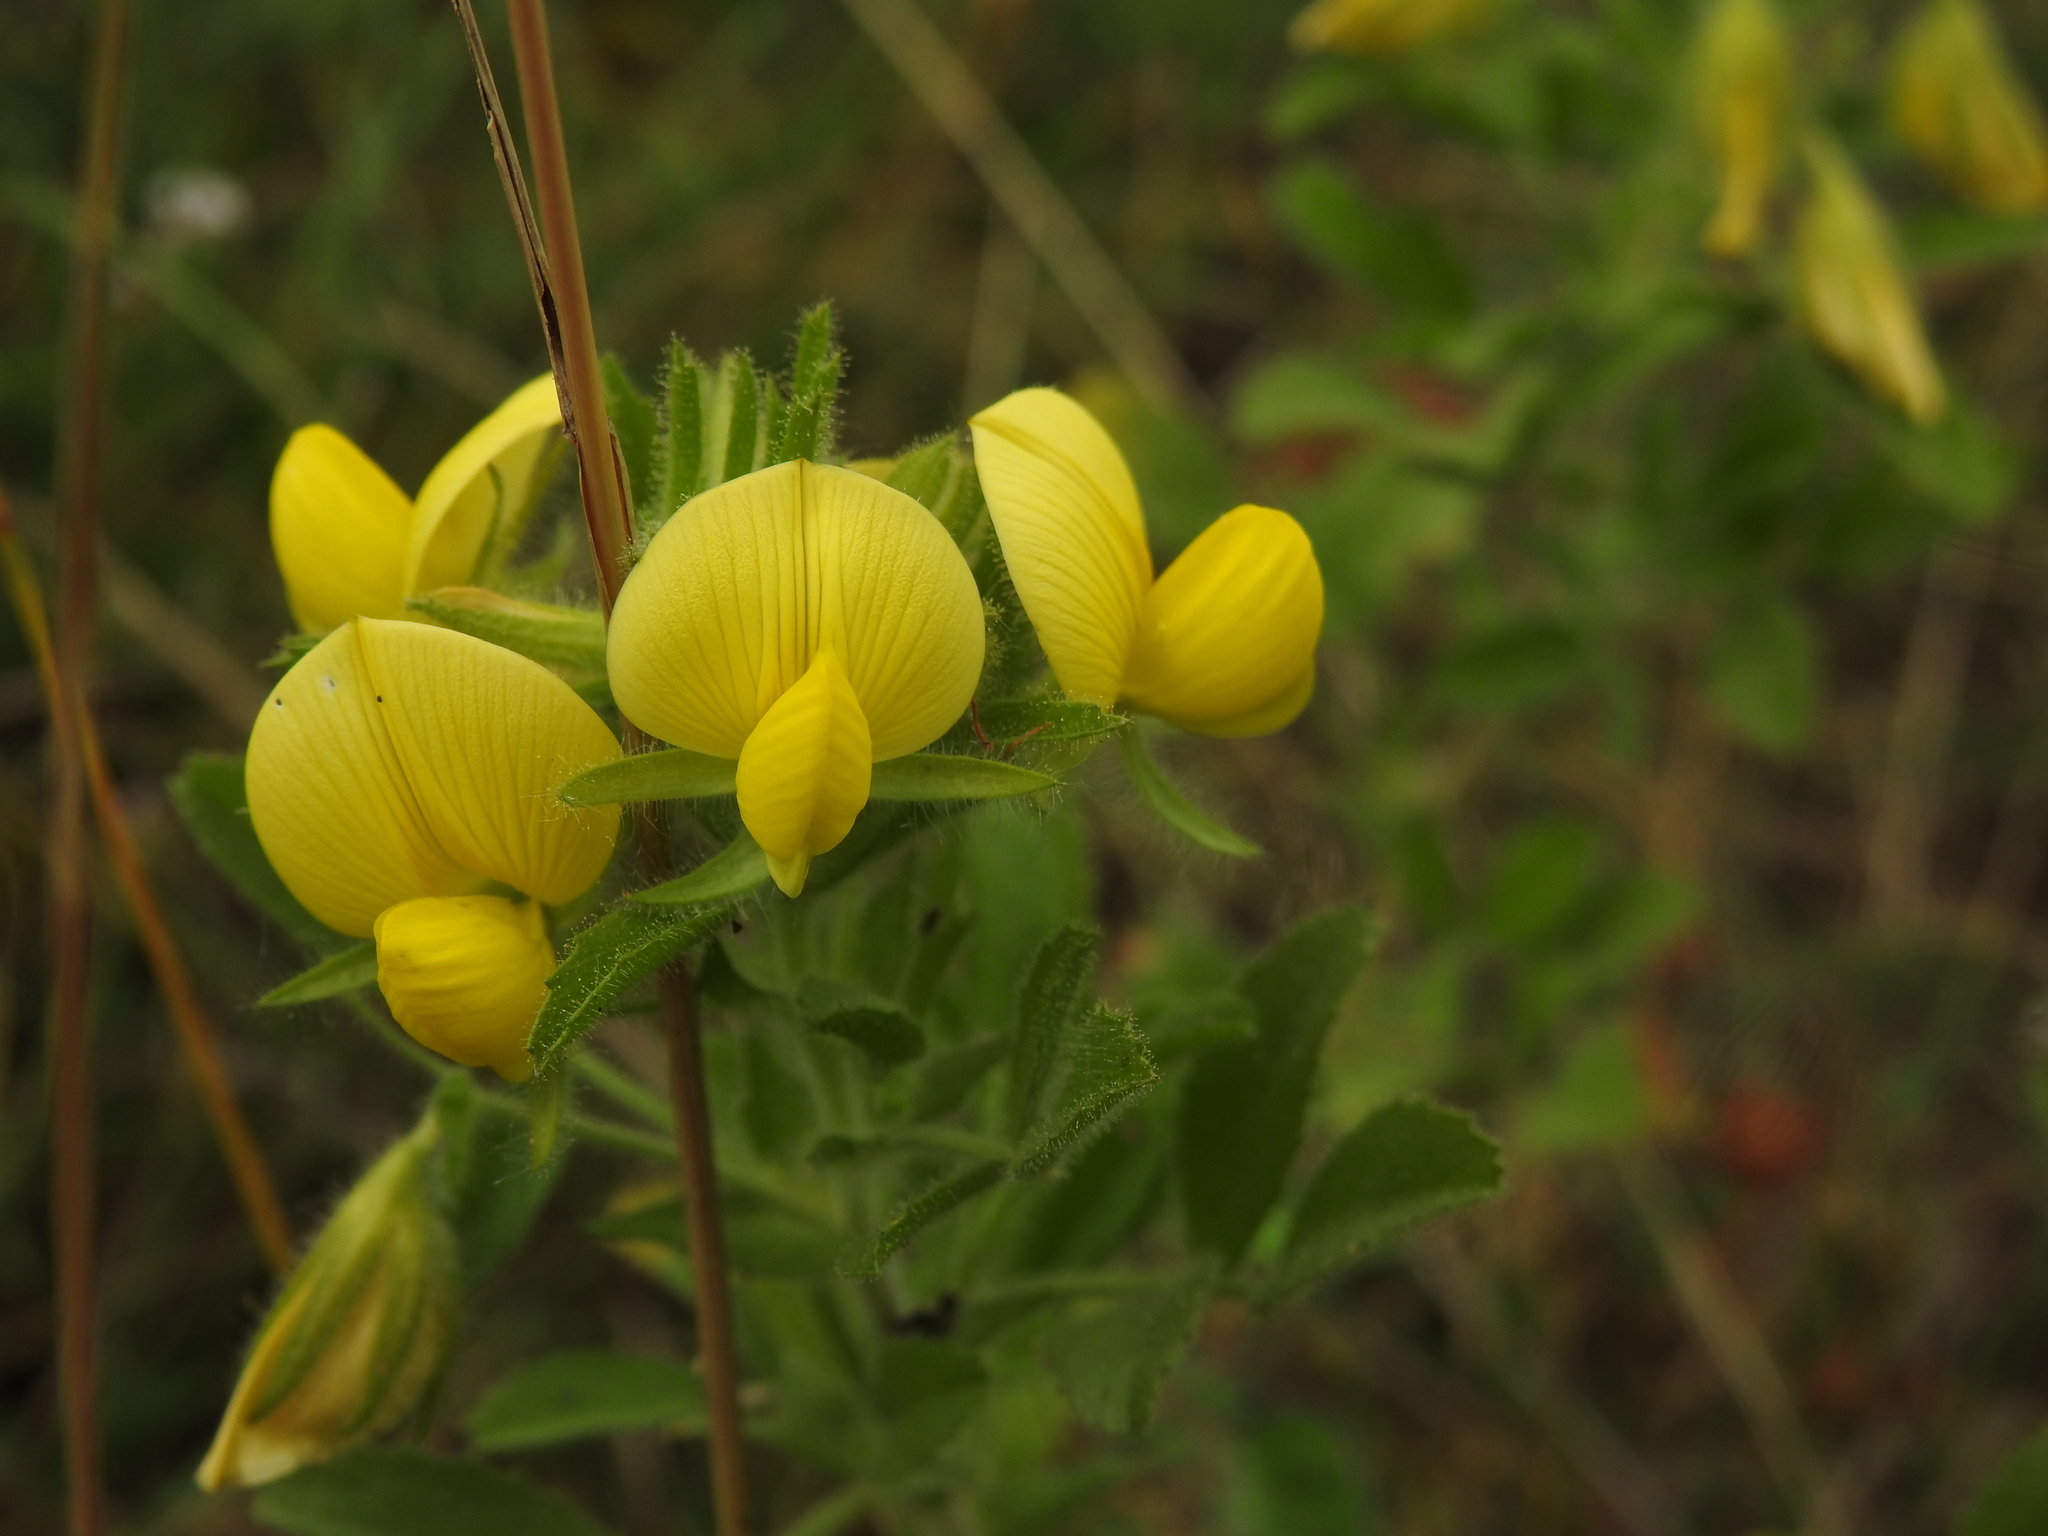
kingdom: Plantae
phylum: Tracheophyta
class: Magnoliopsida
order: Fabales
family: Fabaceae
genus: Ononis
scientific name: Ononis natrix
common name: Yellow restharrow
